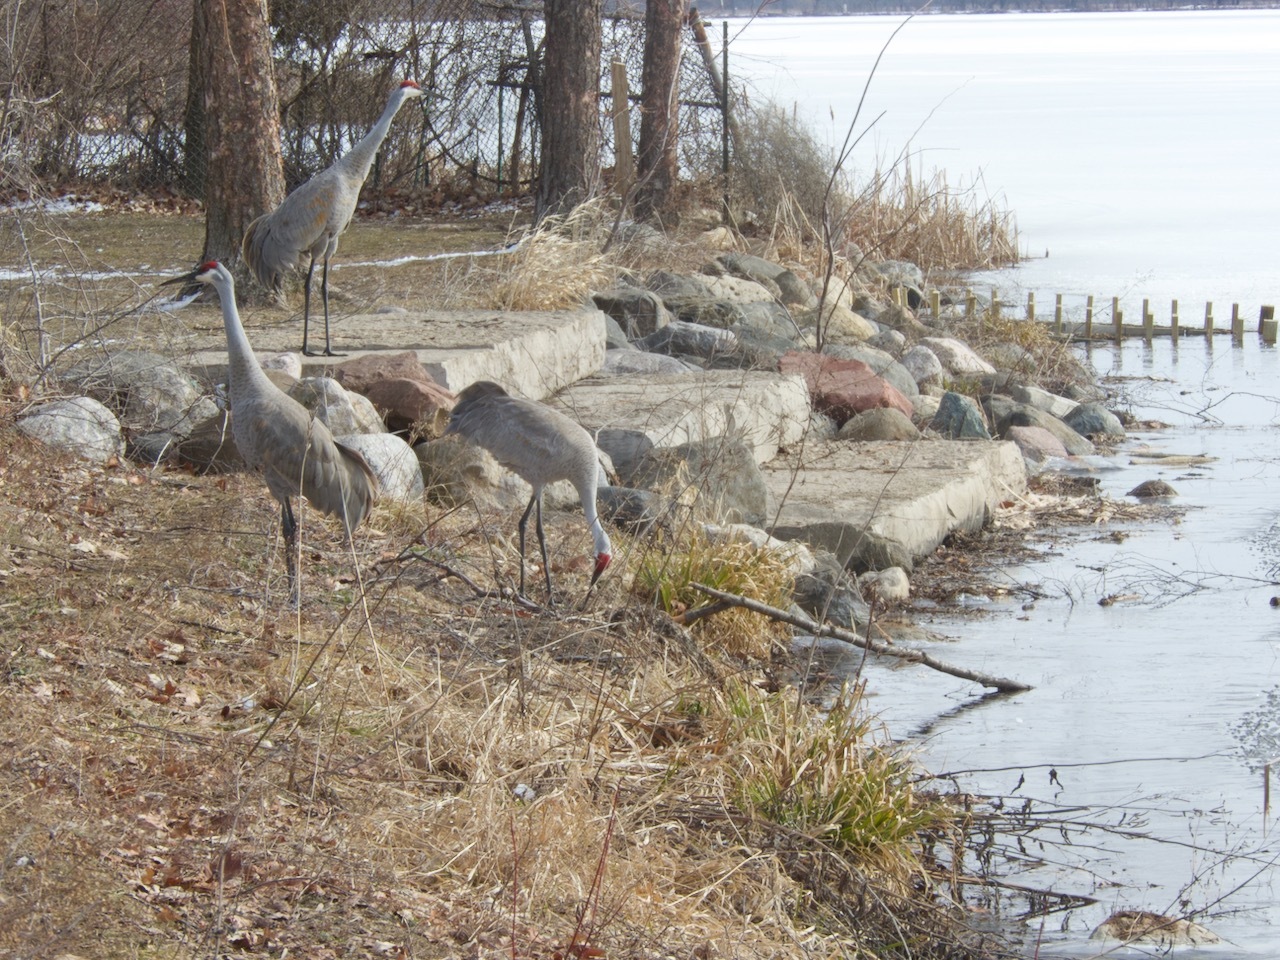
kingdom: Animalia
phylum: Chordata
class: Aves
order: Gruiformes
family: Gruidae
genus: Grus
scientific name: Grus canadensis
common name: Sandhill crane
